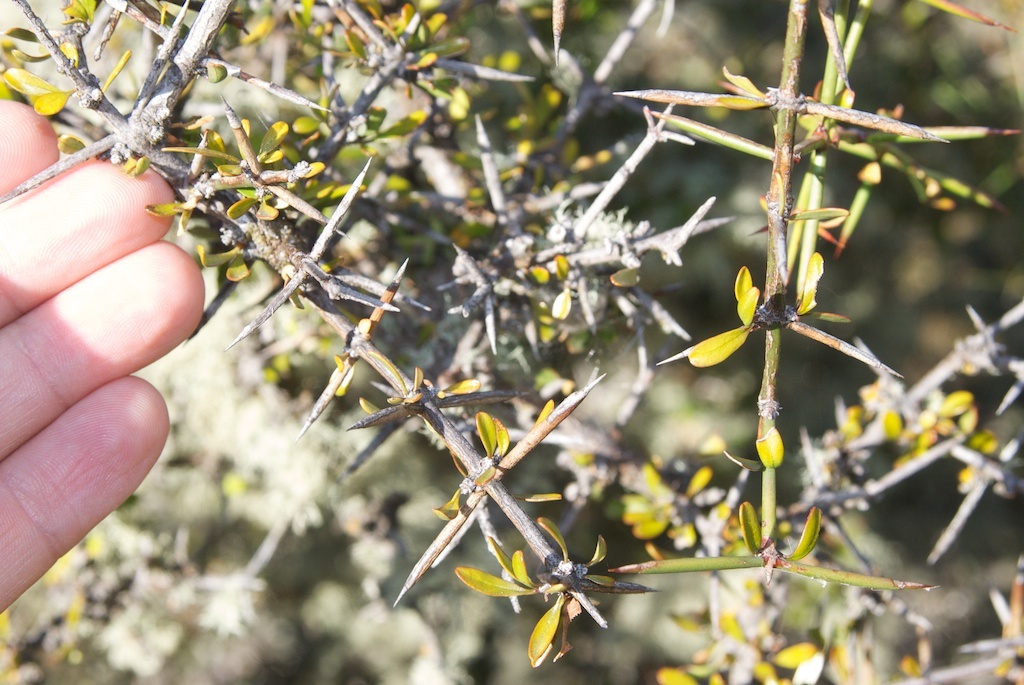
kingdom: Plantae
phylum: Tracheophyta
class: Magnoliopsida
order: Rosales
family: Rhamnaceae
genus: Discaria
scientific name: Discaria toumatou
